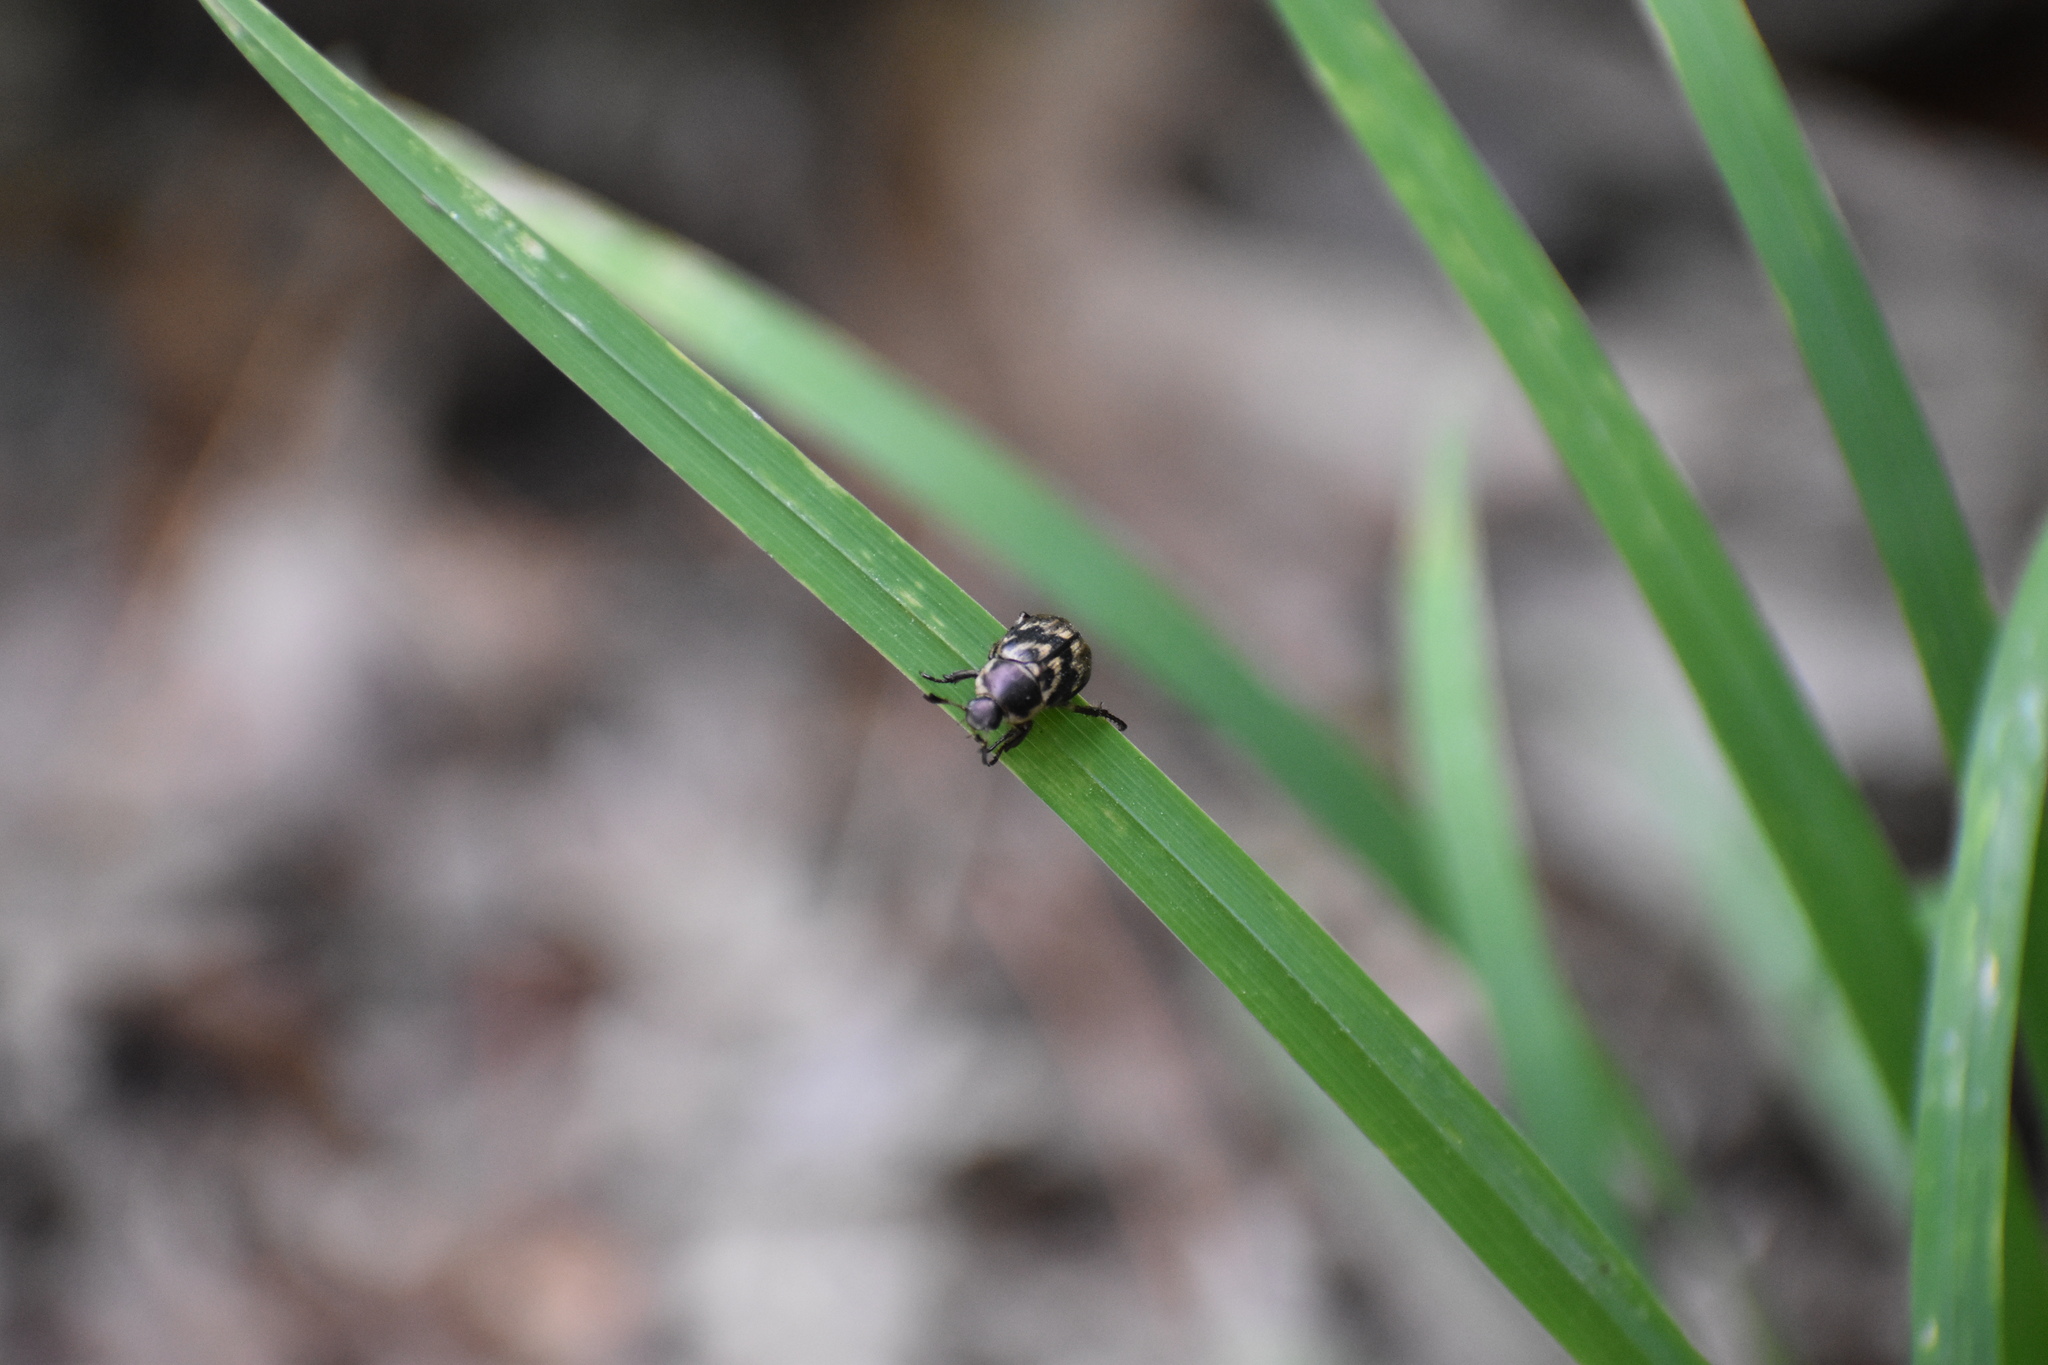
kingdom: Animalia
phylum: Arthropoda
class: Insecta
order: Coleoptera
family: Scarabaeidae
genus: Exomala
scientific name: Exomala orientalis
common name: Oriental beetle
